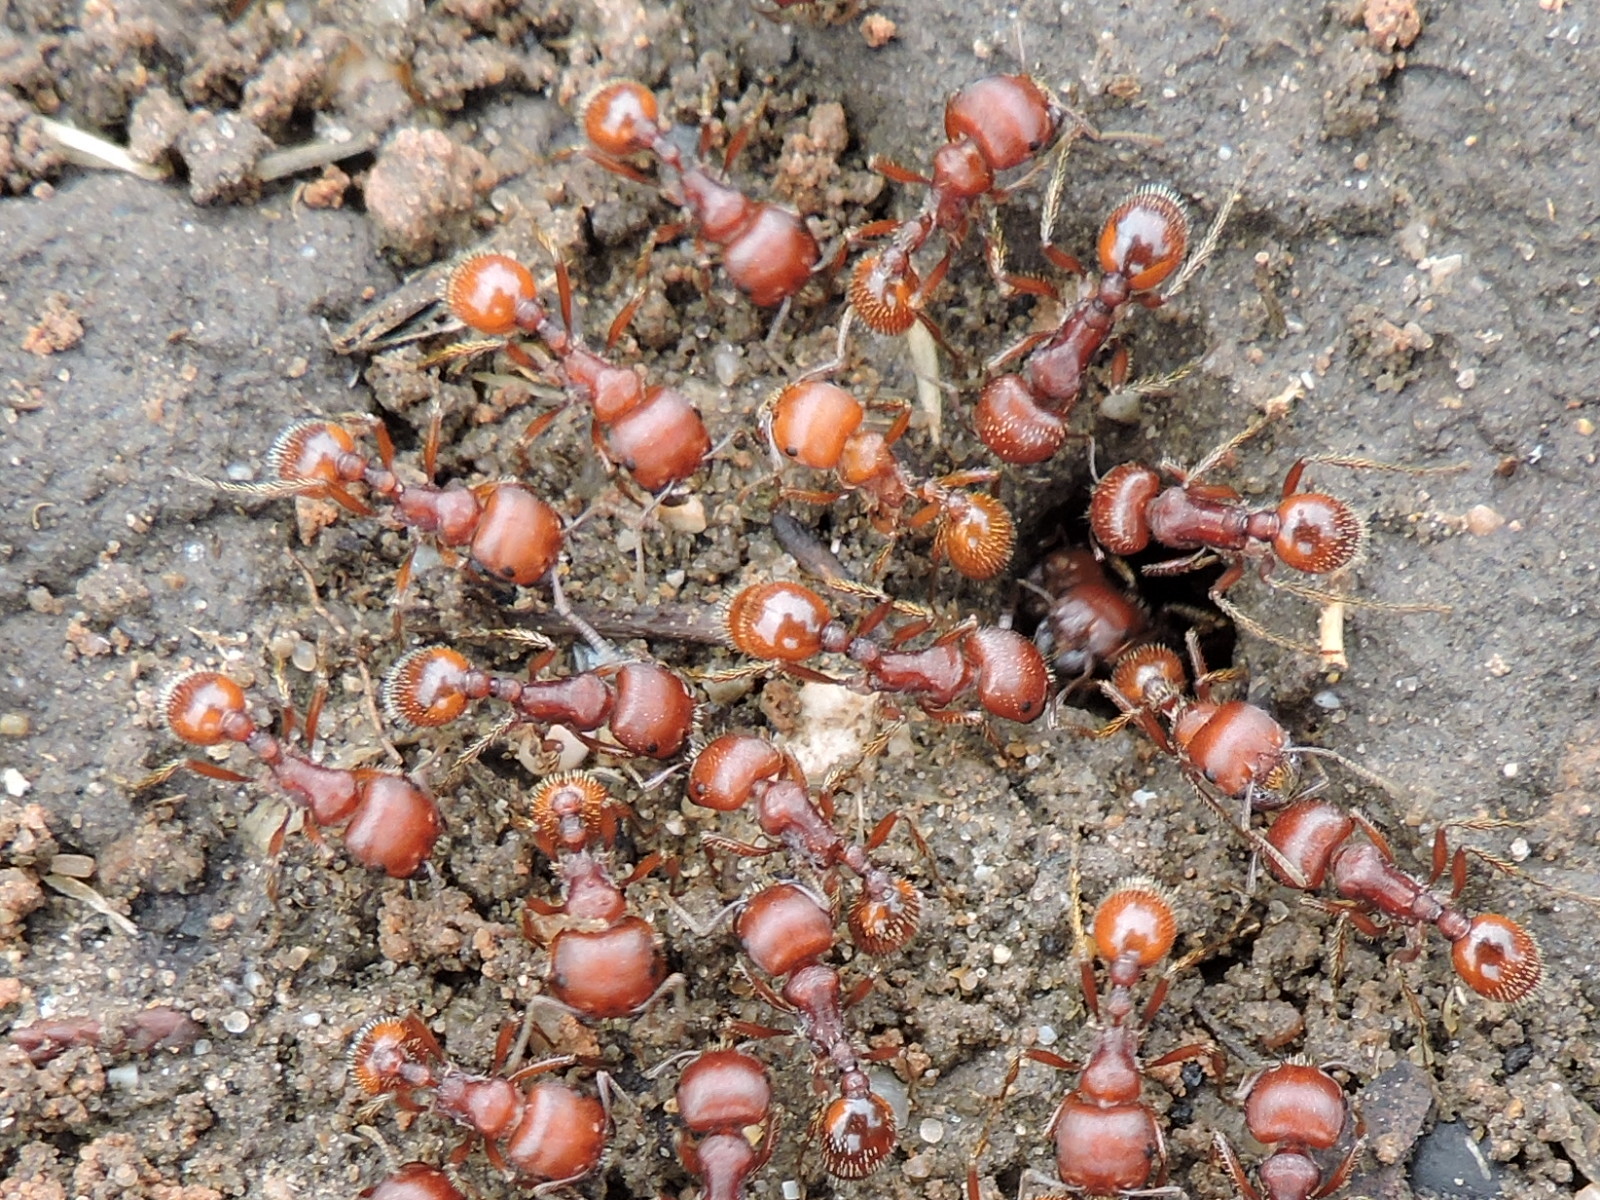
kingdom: Animalia
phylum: Arthropoda
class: Insecta
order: Hymenoptera
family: Formicidae
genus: Pogonomyrmex
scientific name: Pogonomyrmex barbatus
